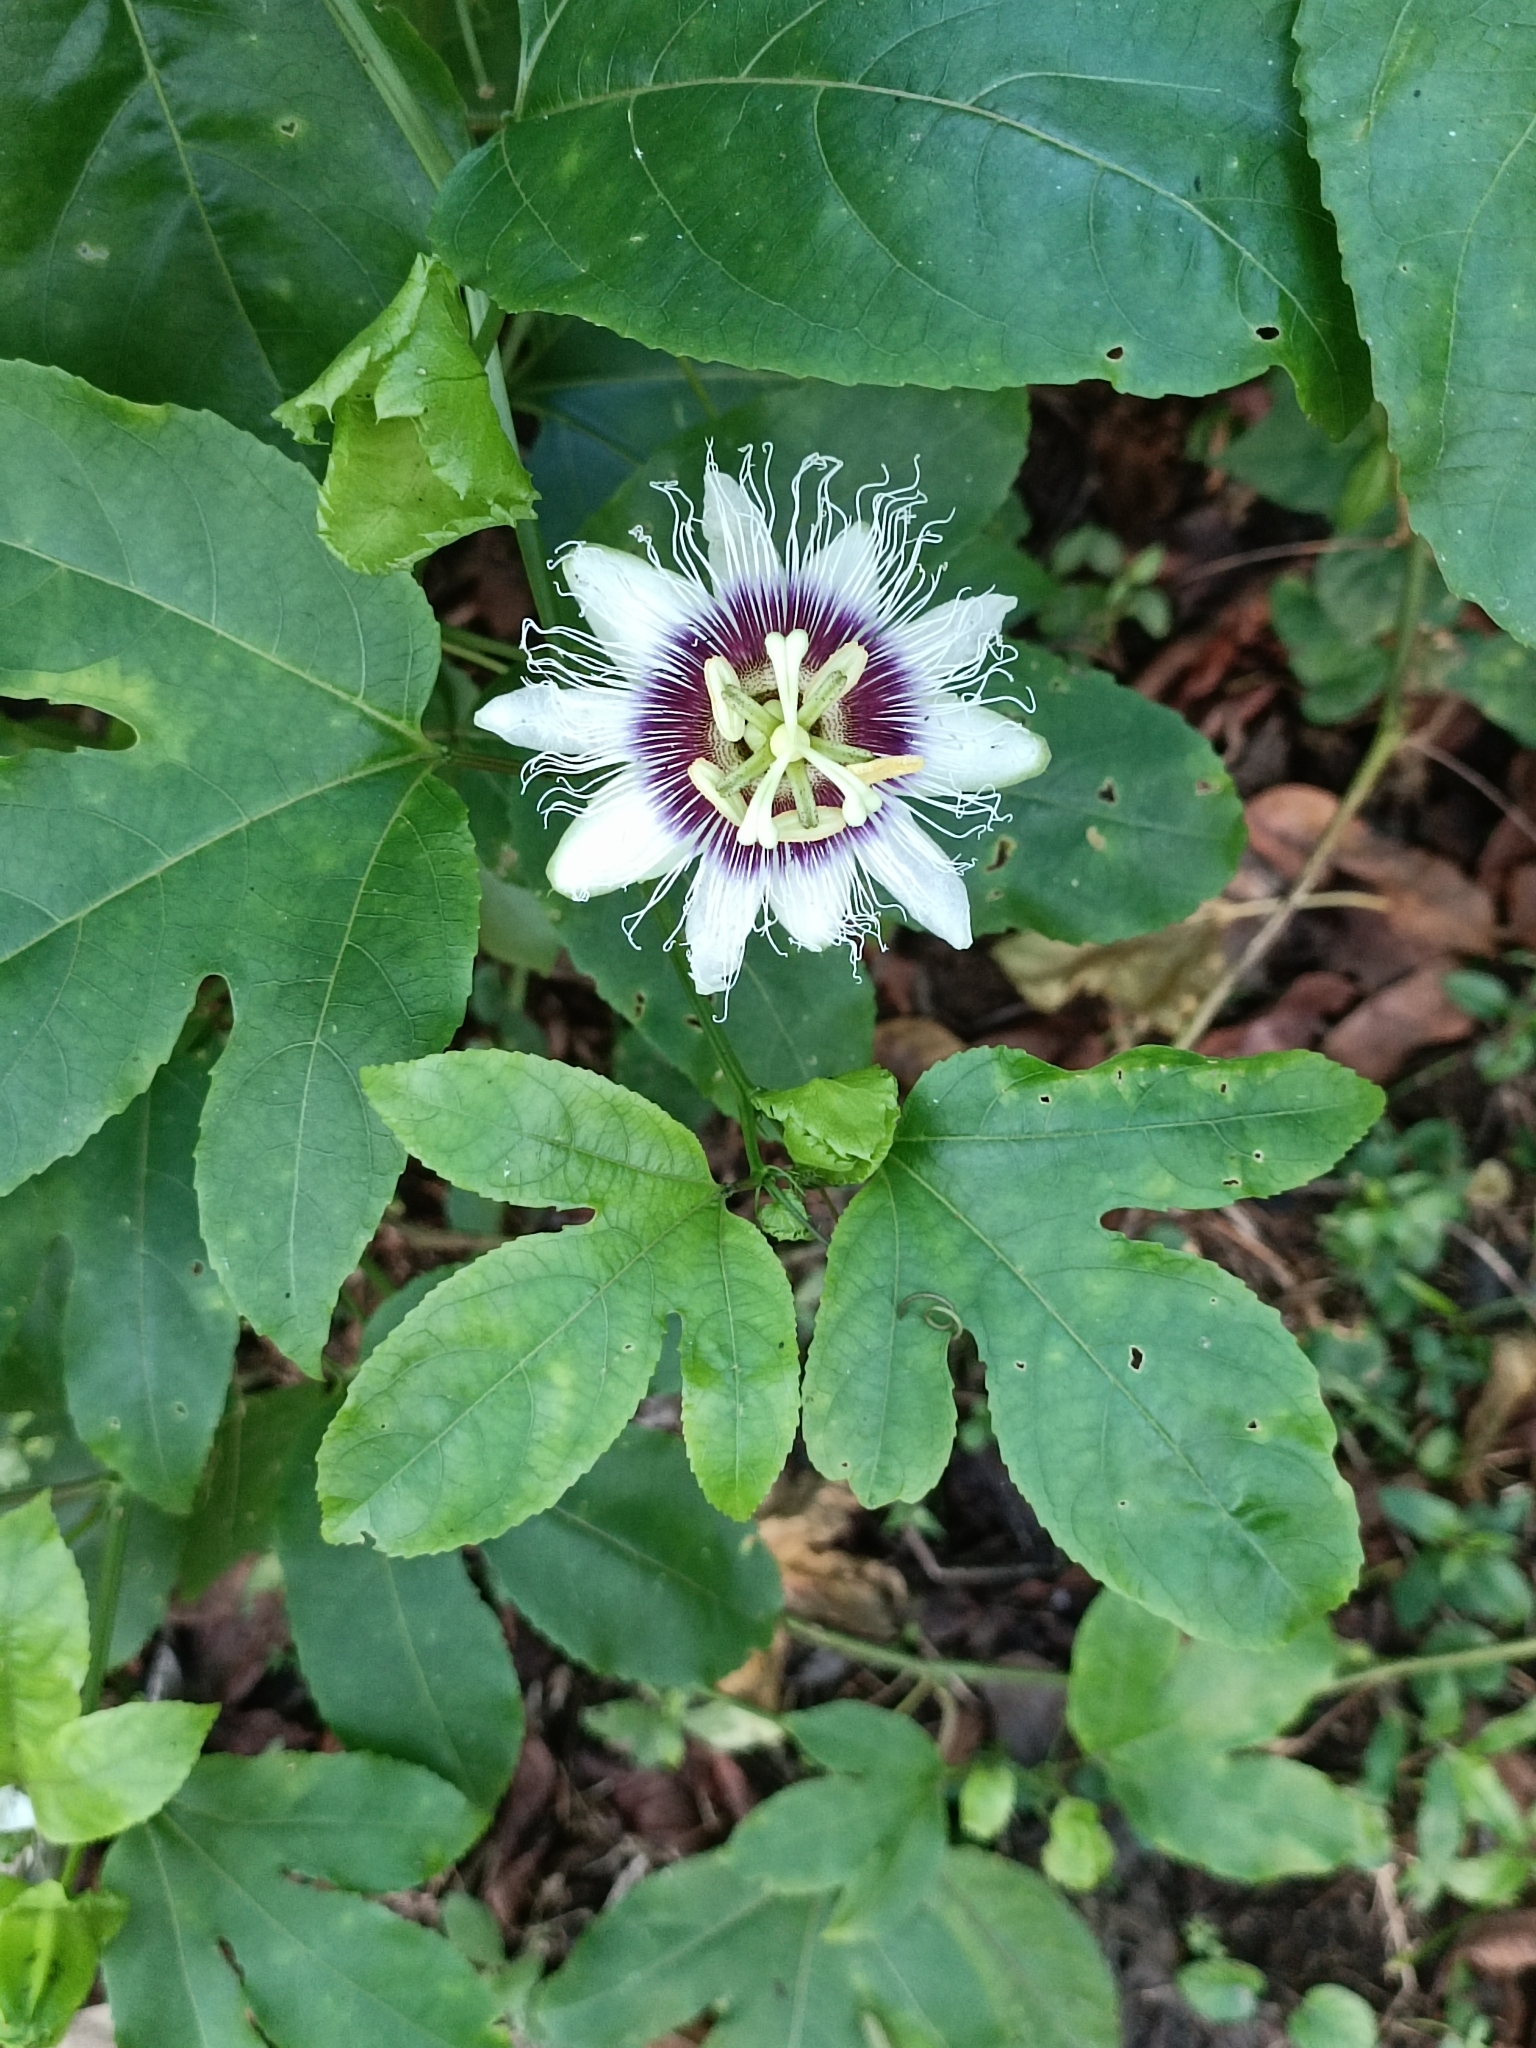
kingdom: Plantae
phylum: Tracheophyta
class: Magnoliopsida
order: Malpighiales
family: Passifloraceae
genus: Passiflora
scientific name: Passiflora edulis
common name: Purple granadilla
